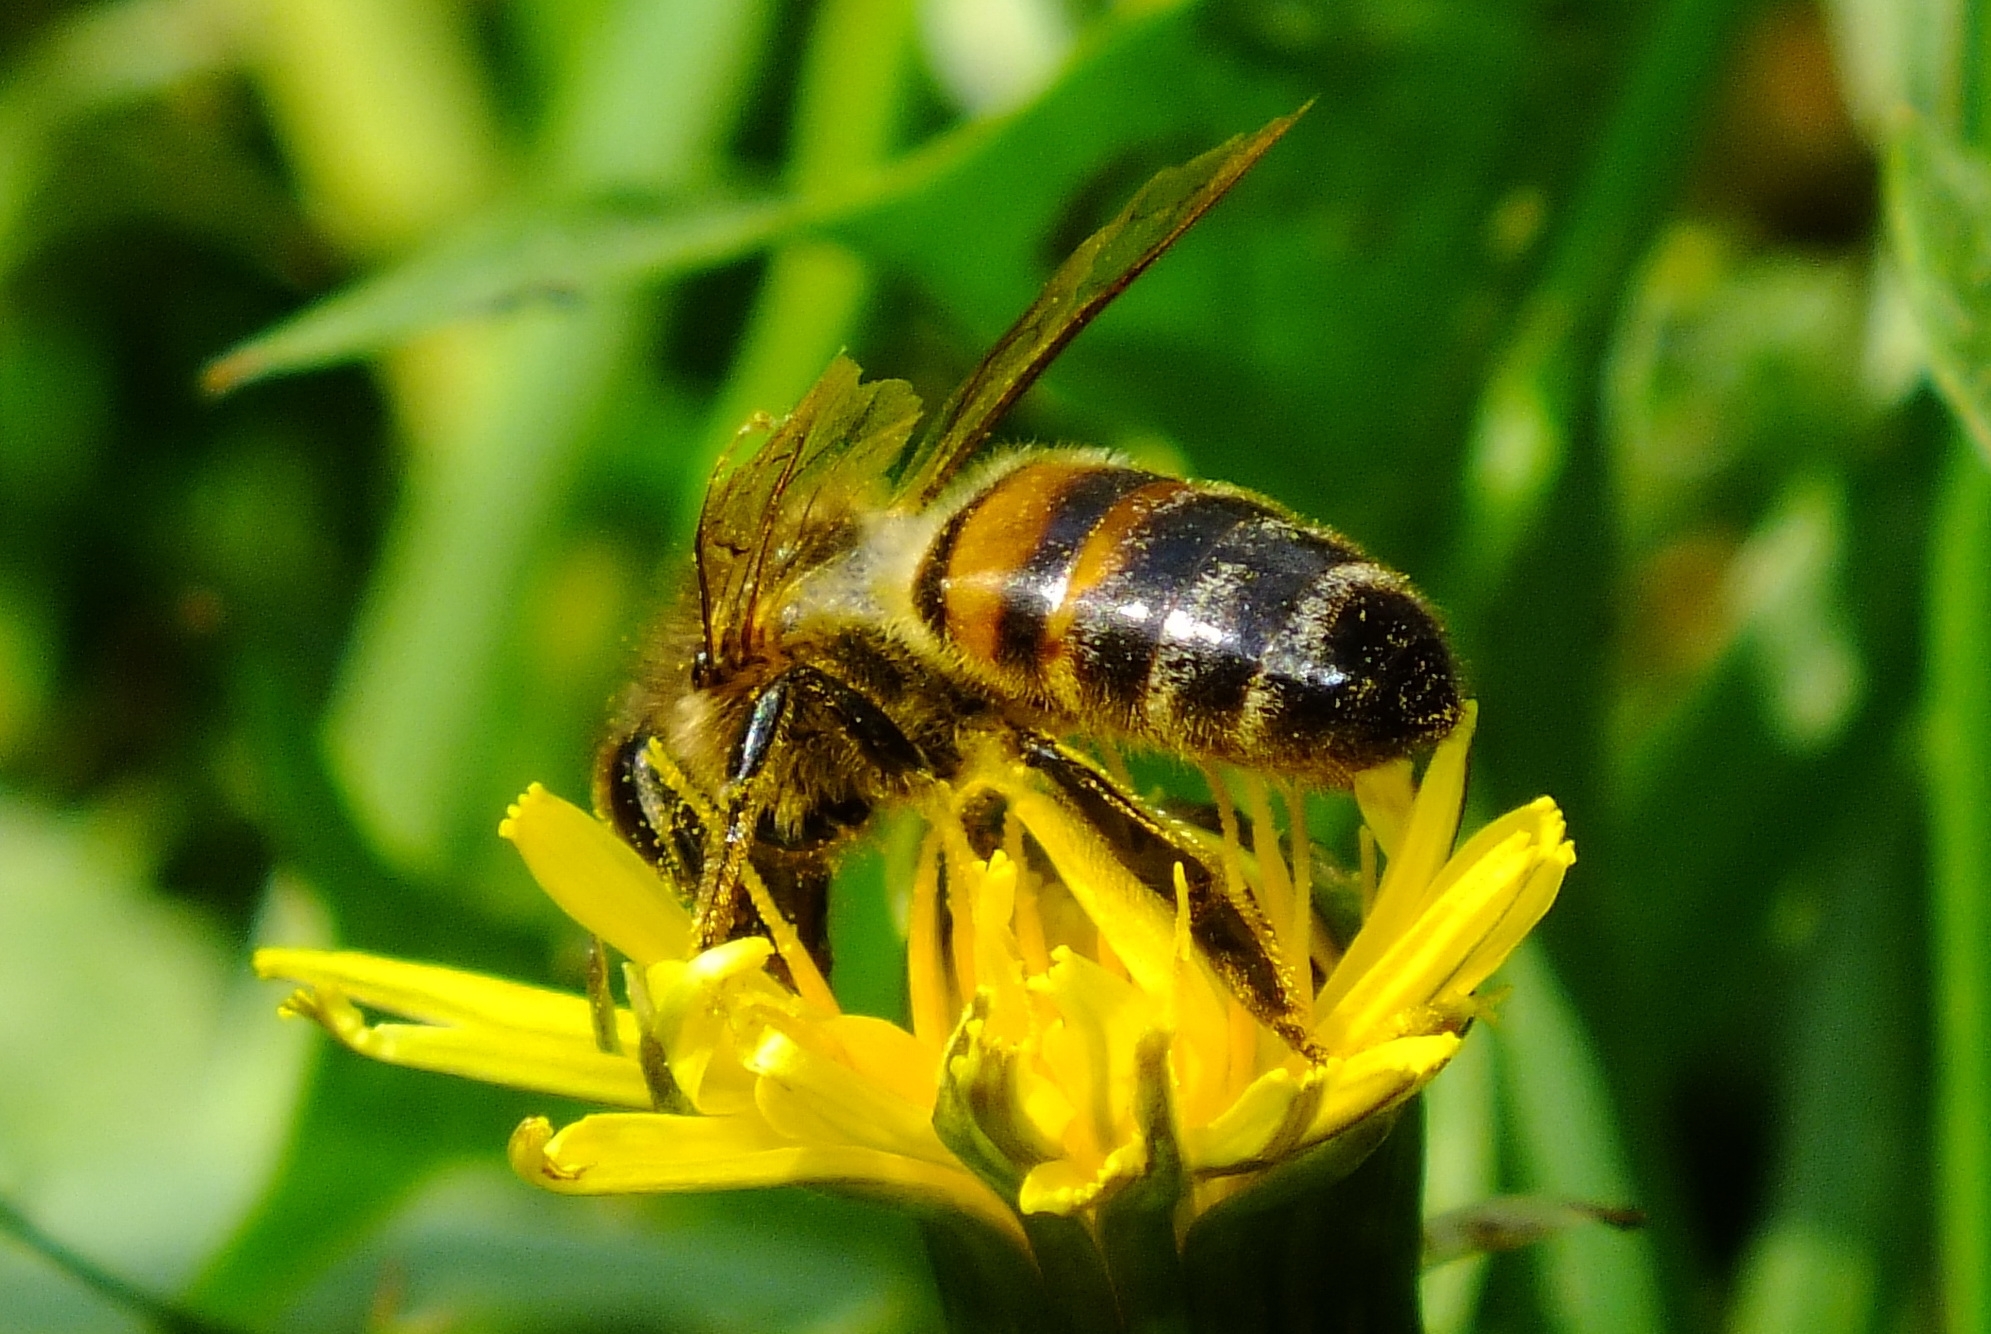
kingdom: Animalia
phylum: Arthropoda
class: Insecta
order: Hymenoptera
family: Apidae
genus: Apis
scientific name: Apis mellifera
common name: Honey bee
